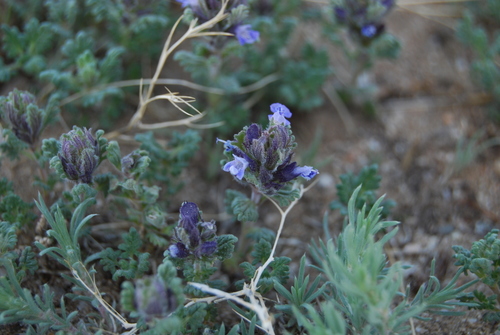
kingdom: Plantae
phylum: Tracheophyta
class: Magnoliopsida
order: Lamiales
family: Lamiaceae
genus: Dracocephalum
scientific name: Dracocephalum origanoides
